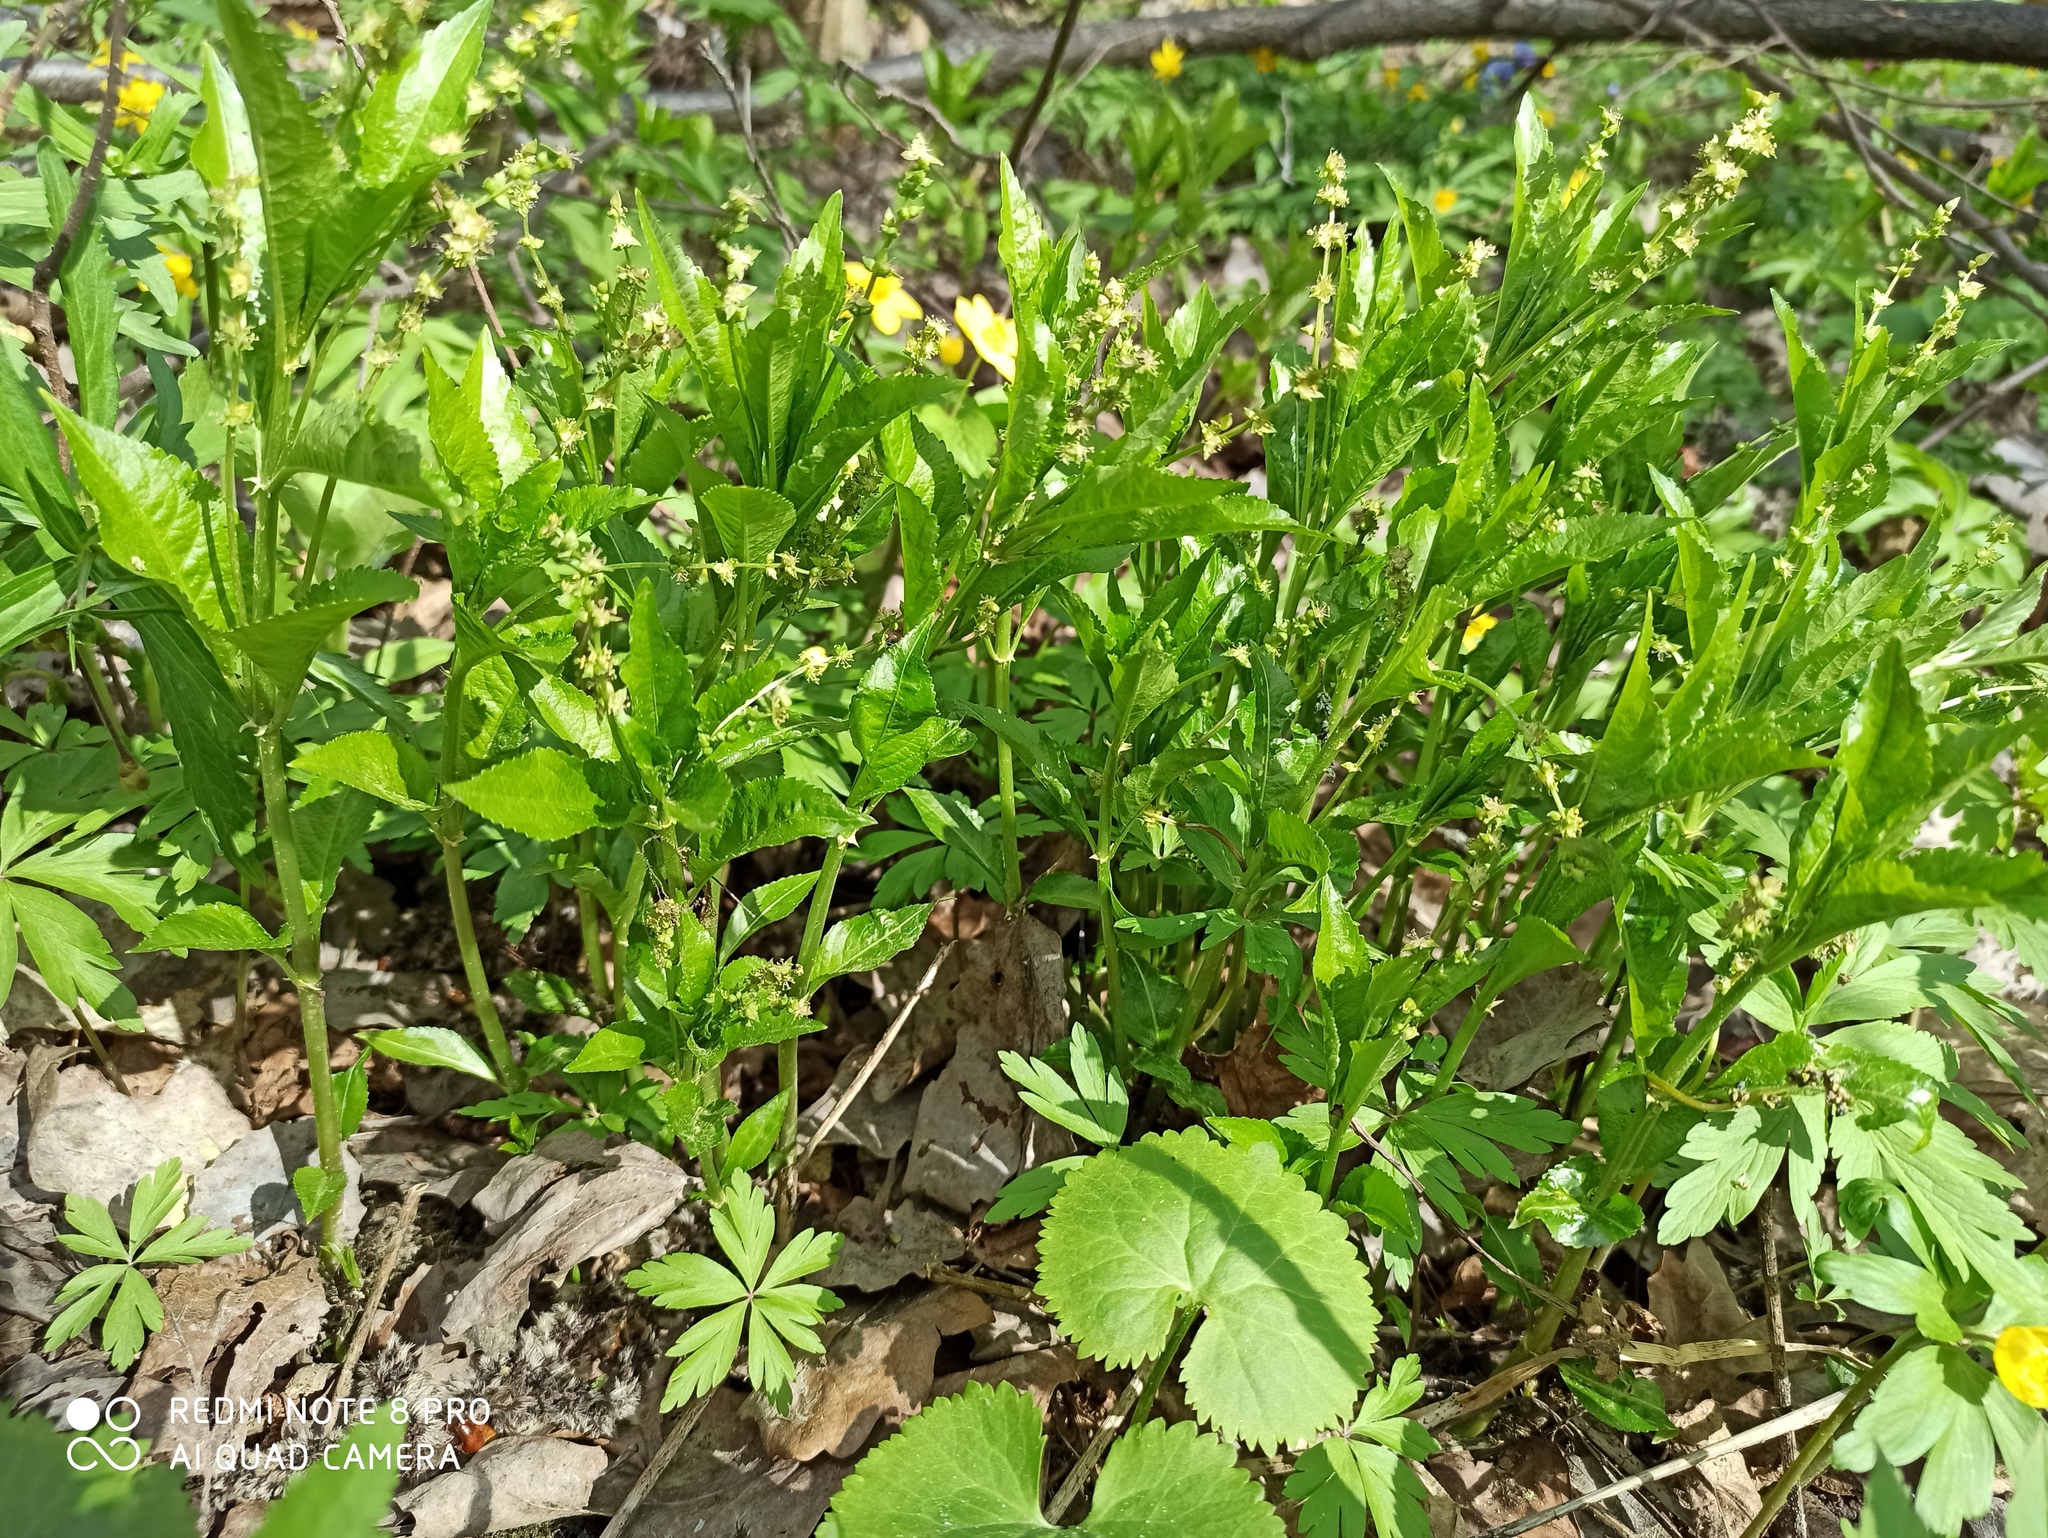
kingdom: Plantae
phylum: Tracheophyta
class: Magnoliopsida
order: Malpighiales
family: Euphorbiaceae
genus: Mercurialis
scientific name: Mercurialis perennis
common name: Dog mercury
